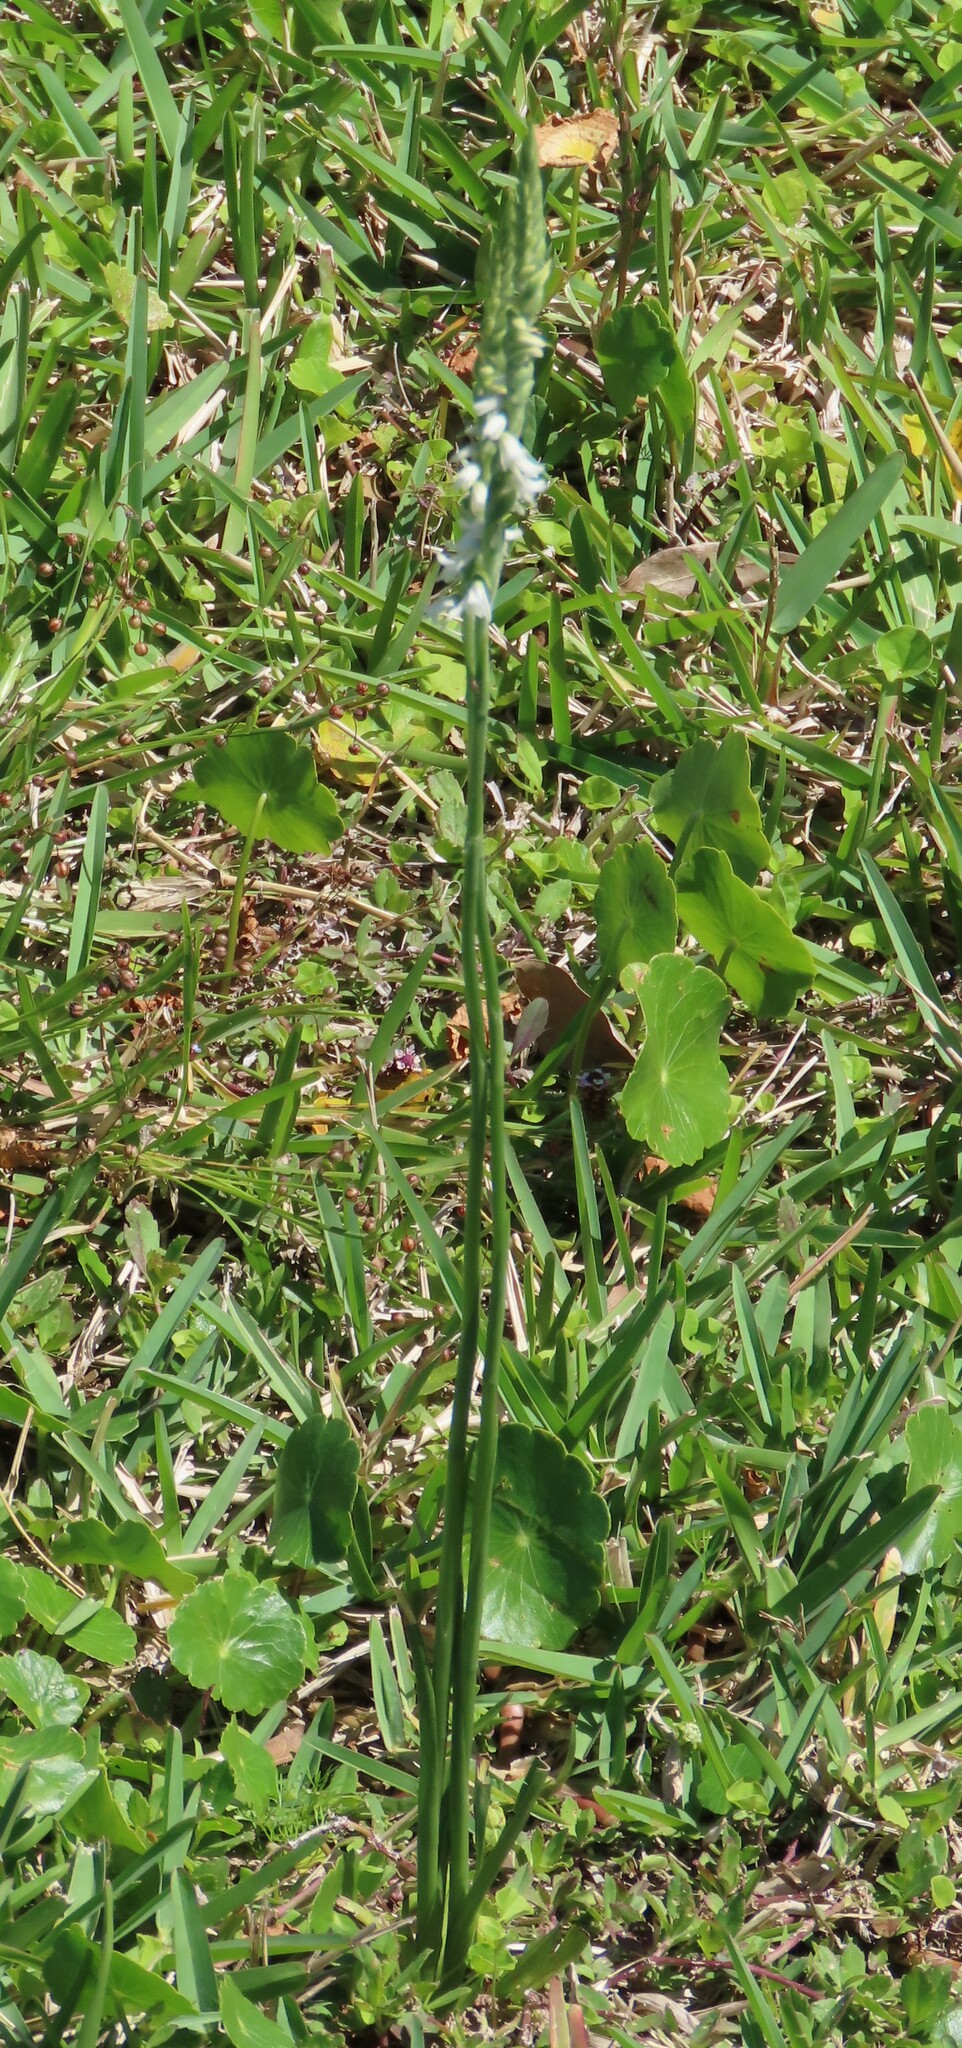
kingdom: Plantae
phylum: Tracheophyta
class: Liliopsida
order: Asparagales
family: Orchidaceae
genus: Spiranthes
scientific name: Spiranthes vernalis
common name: Spring ladies'-tresses
